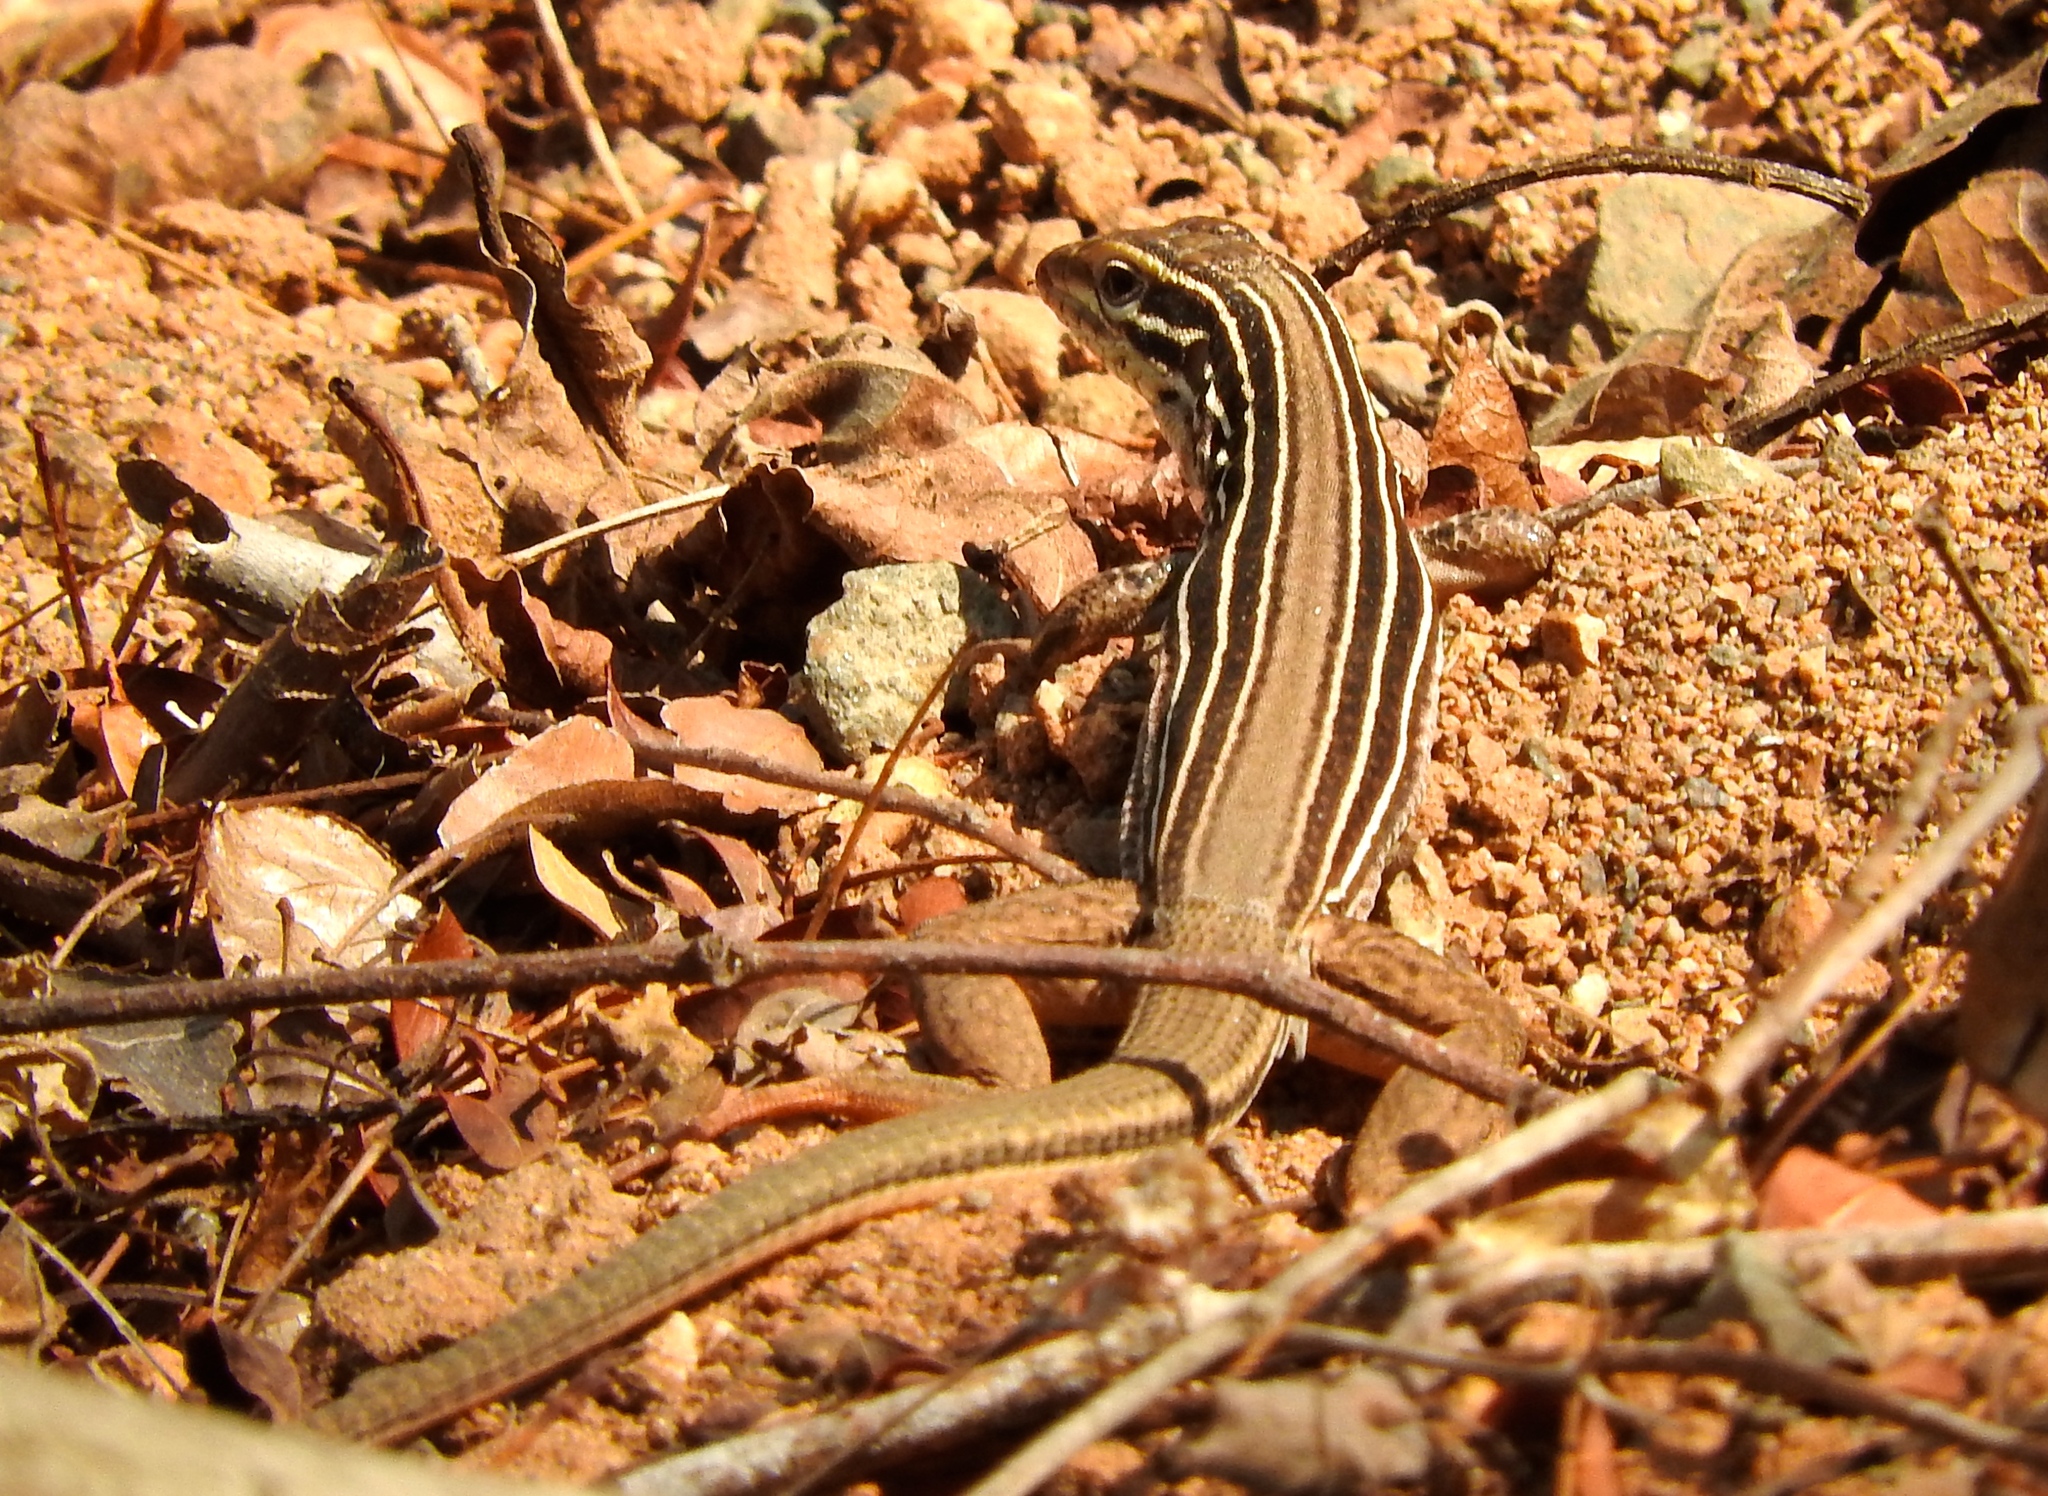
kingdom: Animalia
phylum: Chordata
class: Squamata
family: Teiidae
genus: Aspidoscelis
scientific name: Aspidoscelis costatus
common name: Western mexico whiptail
